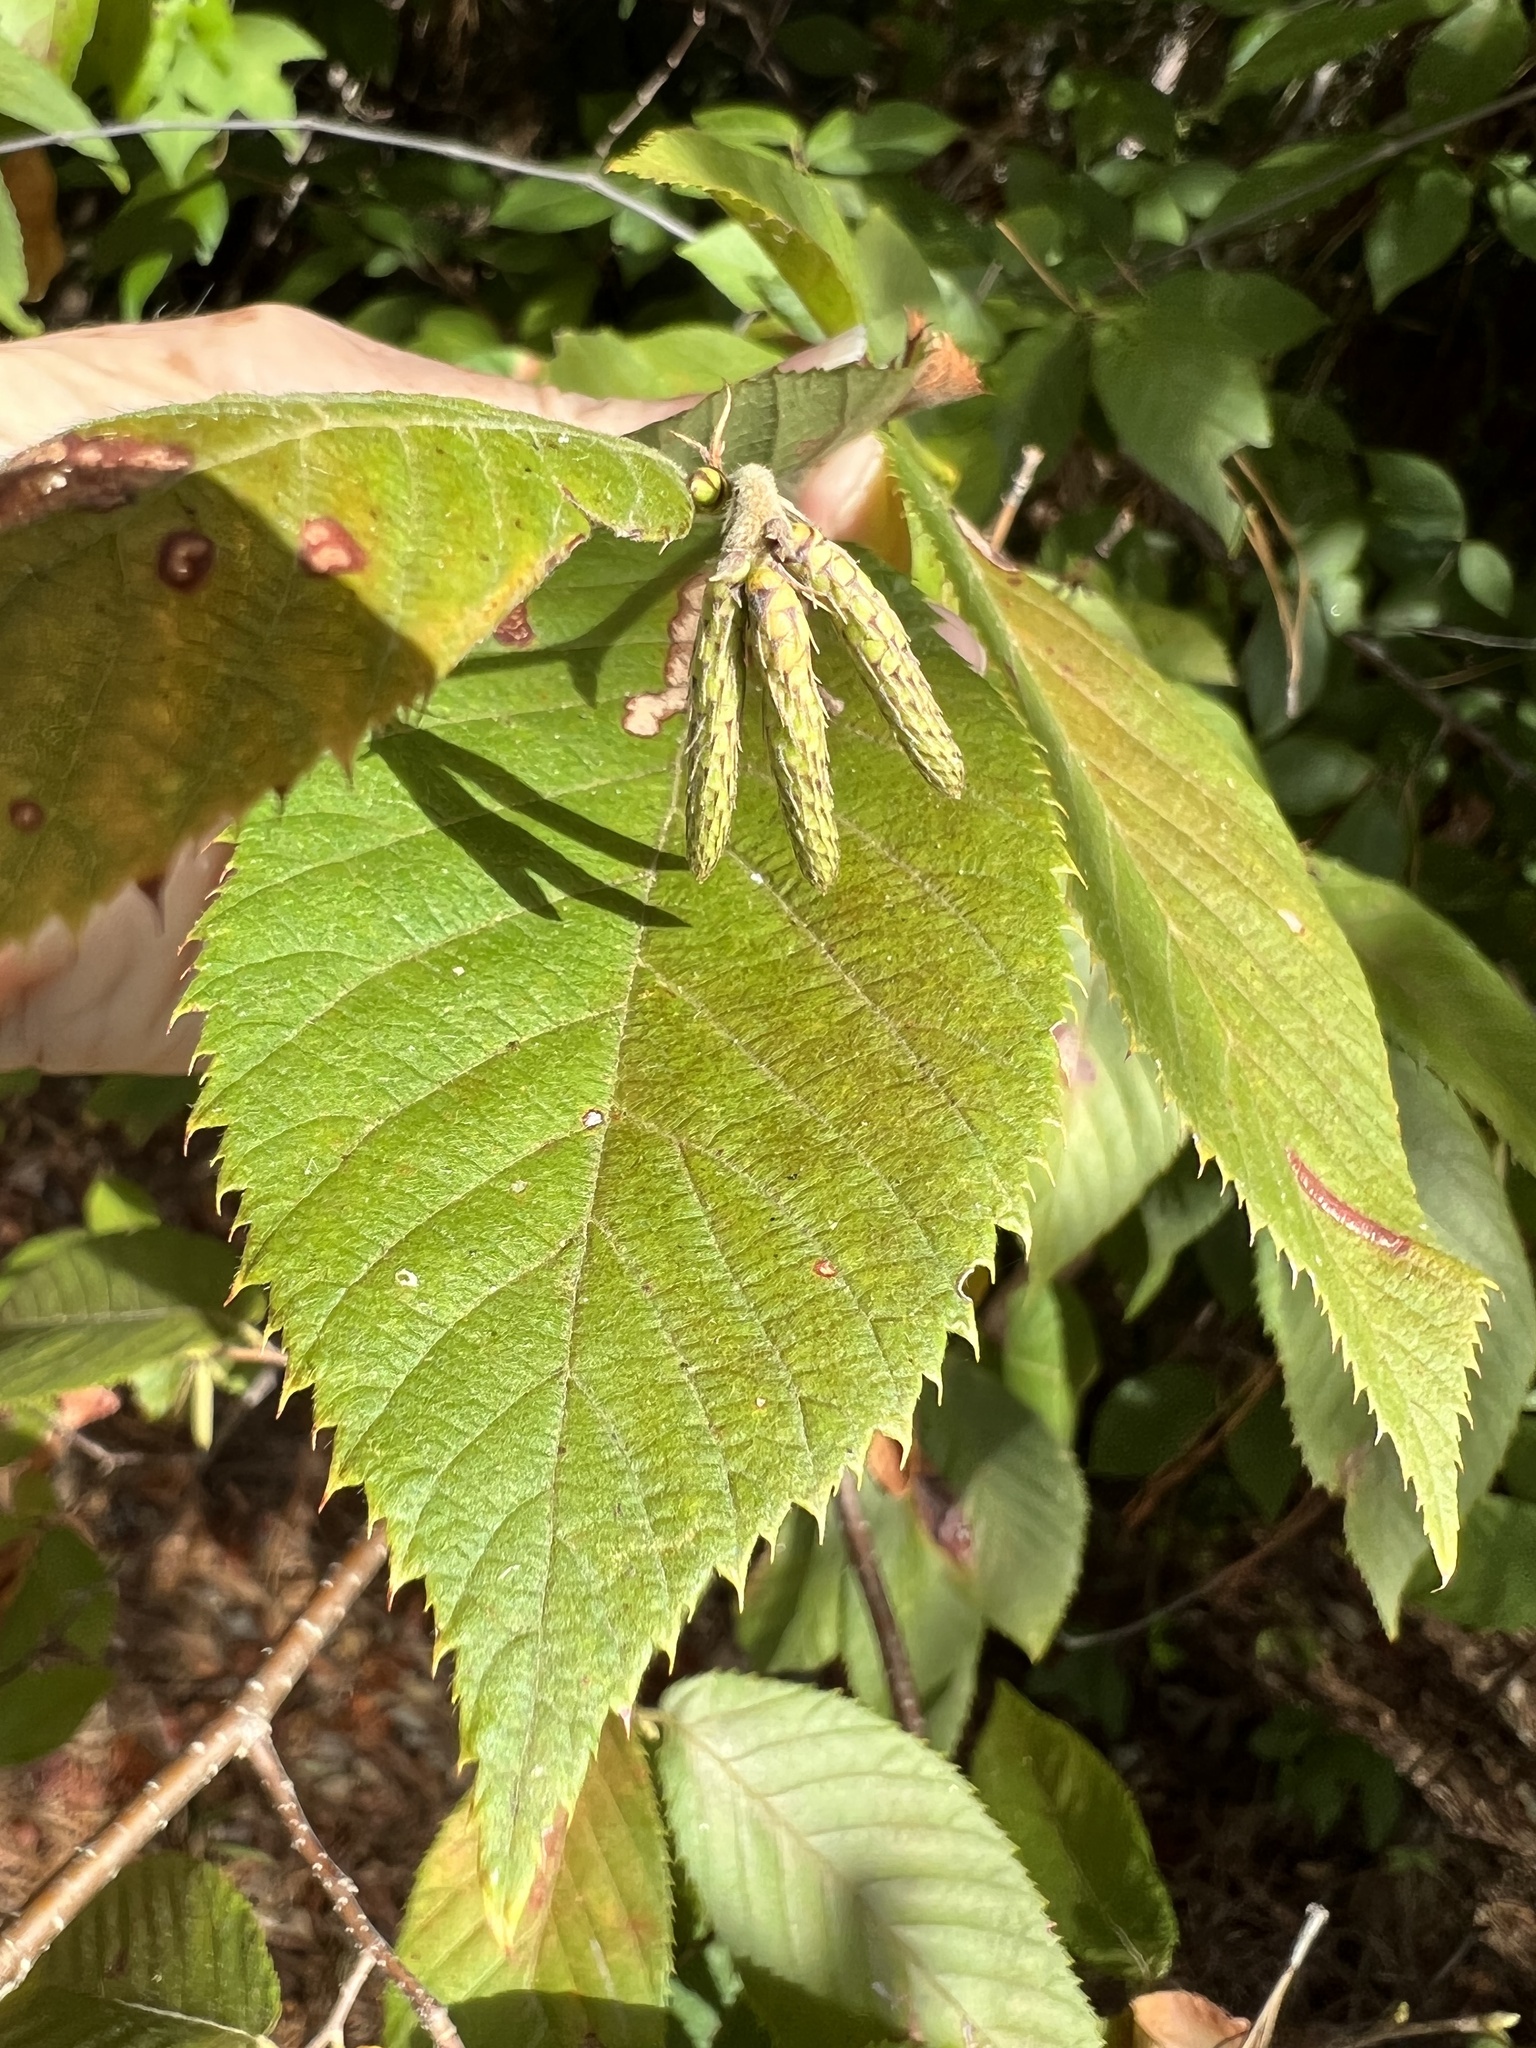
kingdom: Plantae
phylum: Tracheophyta
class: Magnoliopsida
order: Fagales
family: Betulaceae
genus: Ostrya
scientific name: Ostrya virginiana
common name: Ironwood
